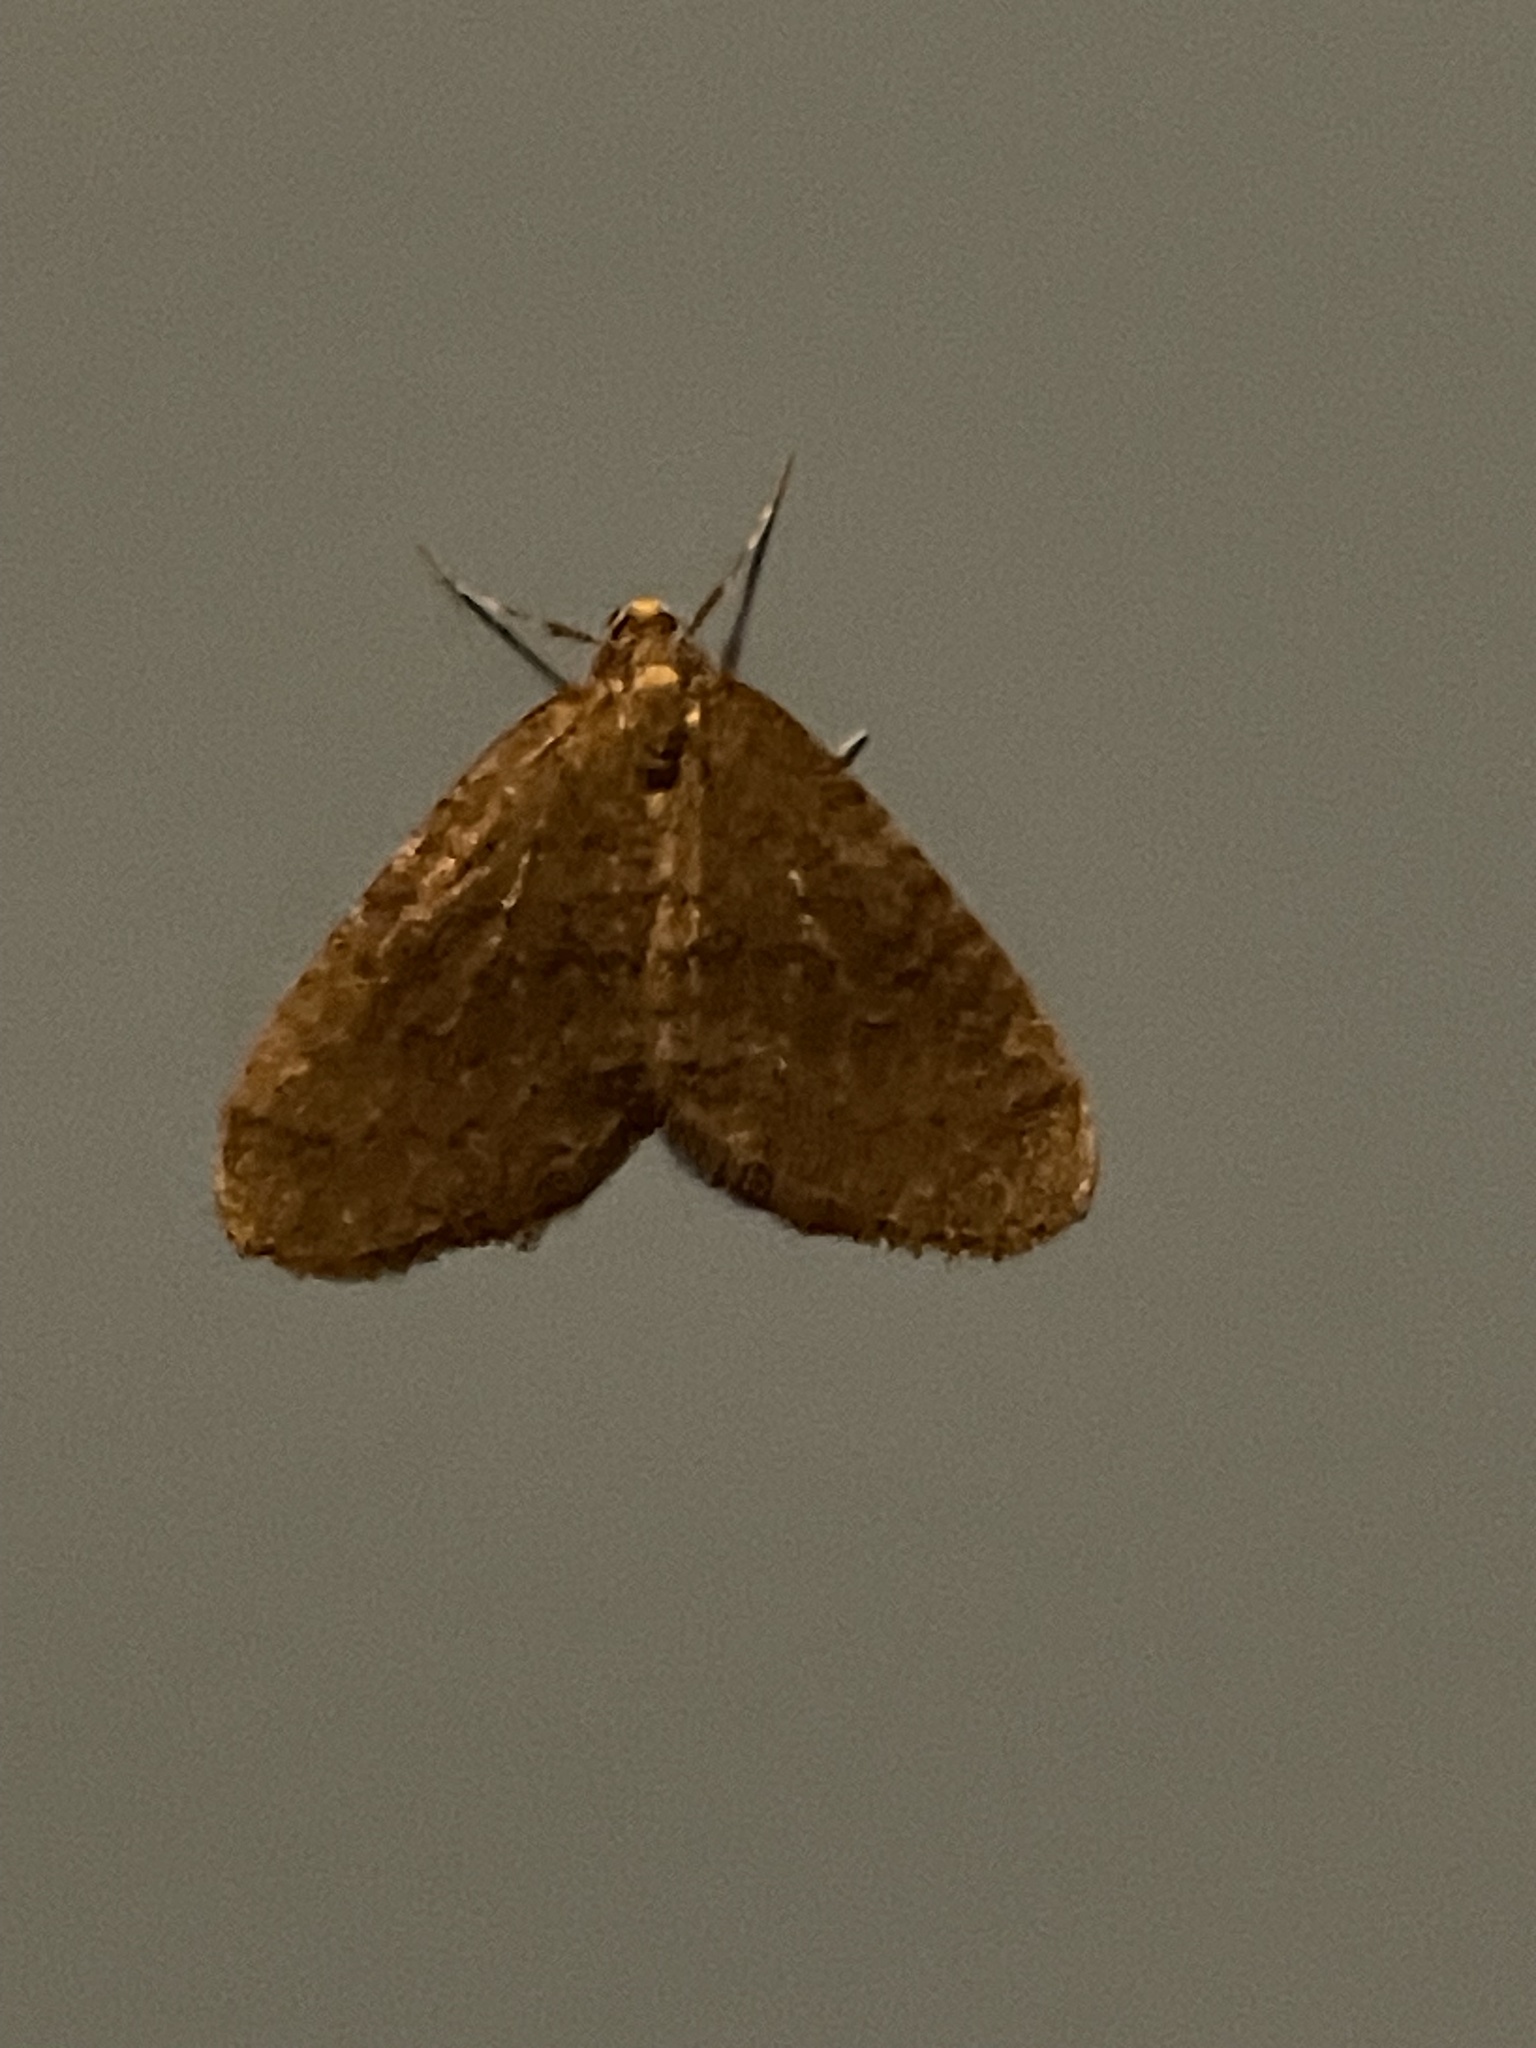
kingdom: Animalia
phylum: Arthropoda
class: Insecta
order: Lepidoptera
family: Geometridae
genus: Operophtera
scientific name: Operophtera brumata
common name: Winter moth
